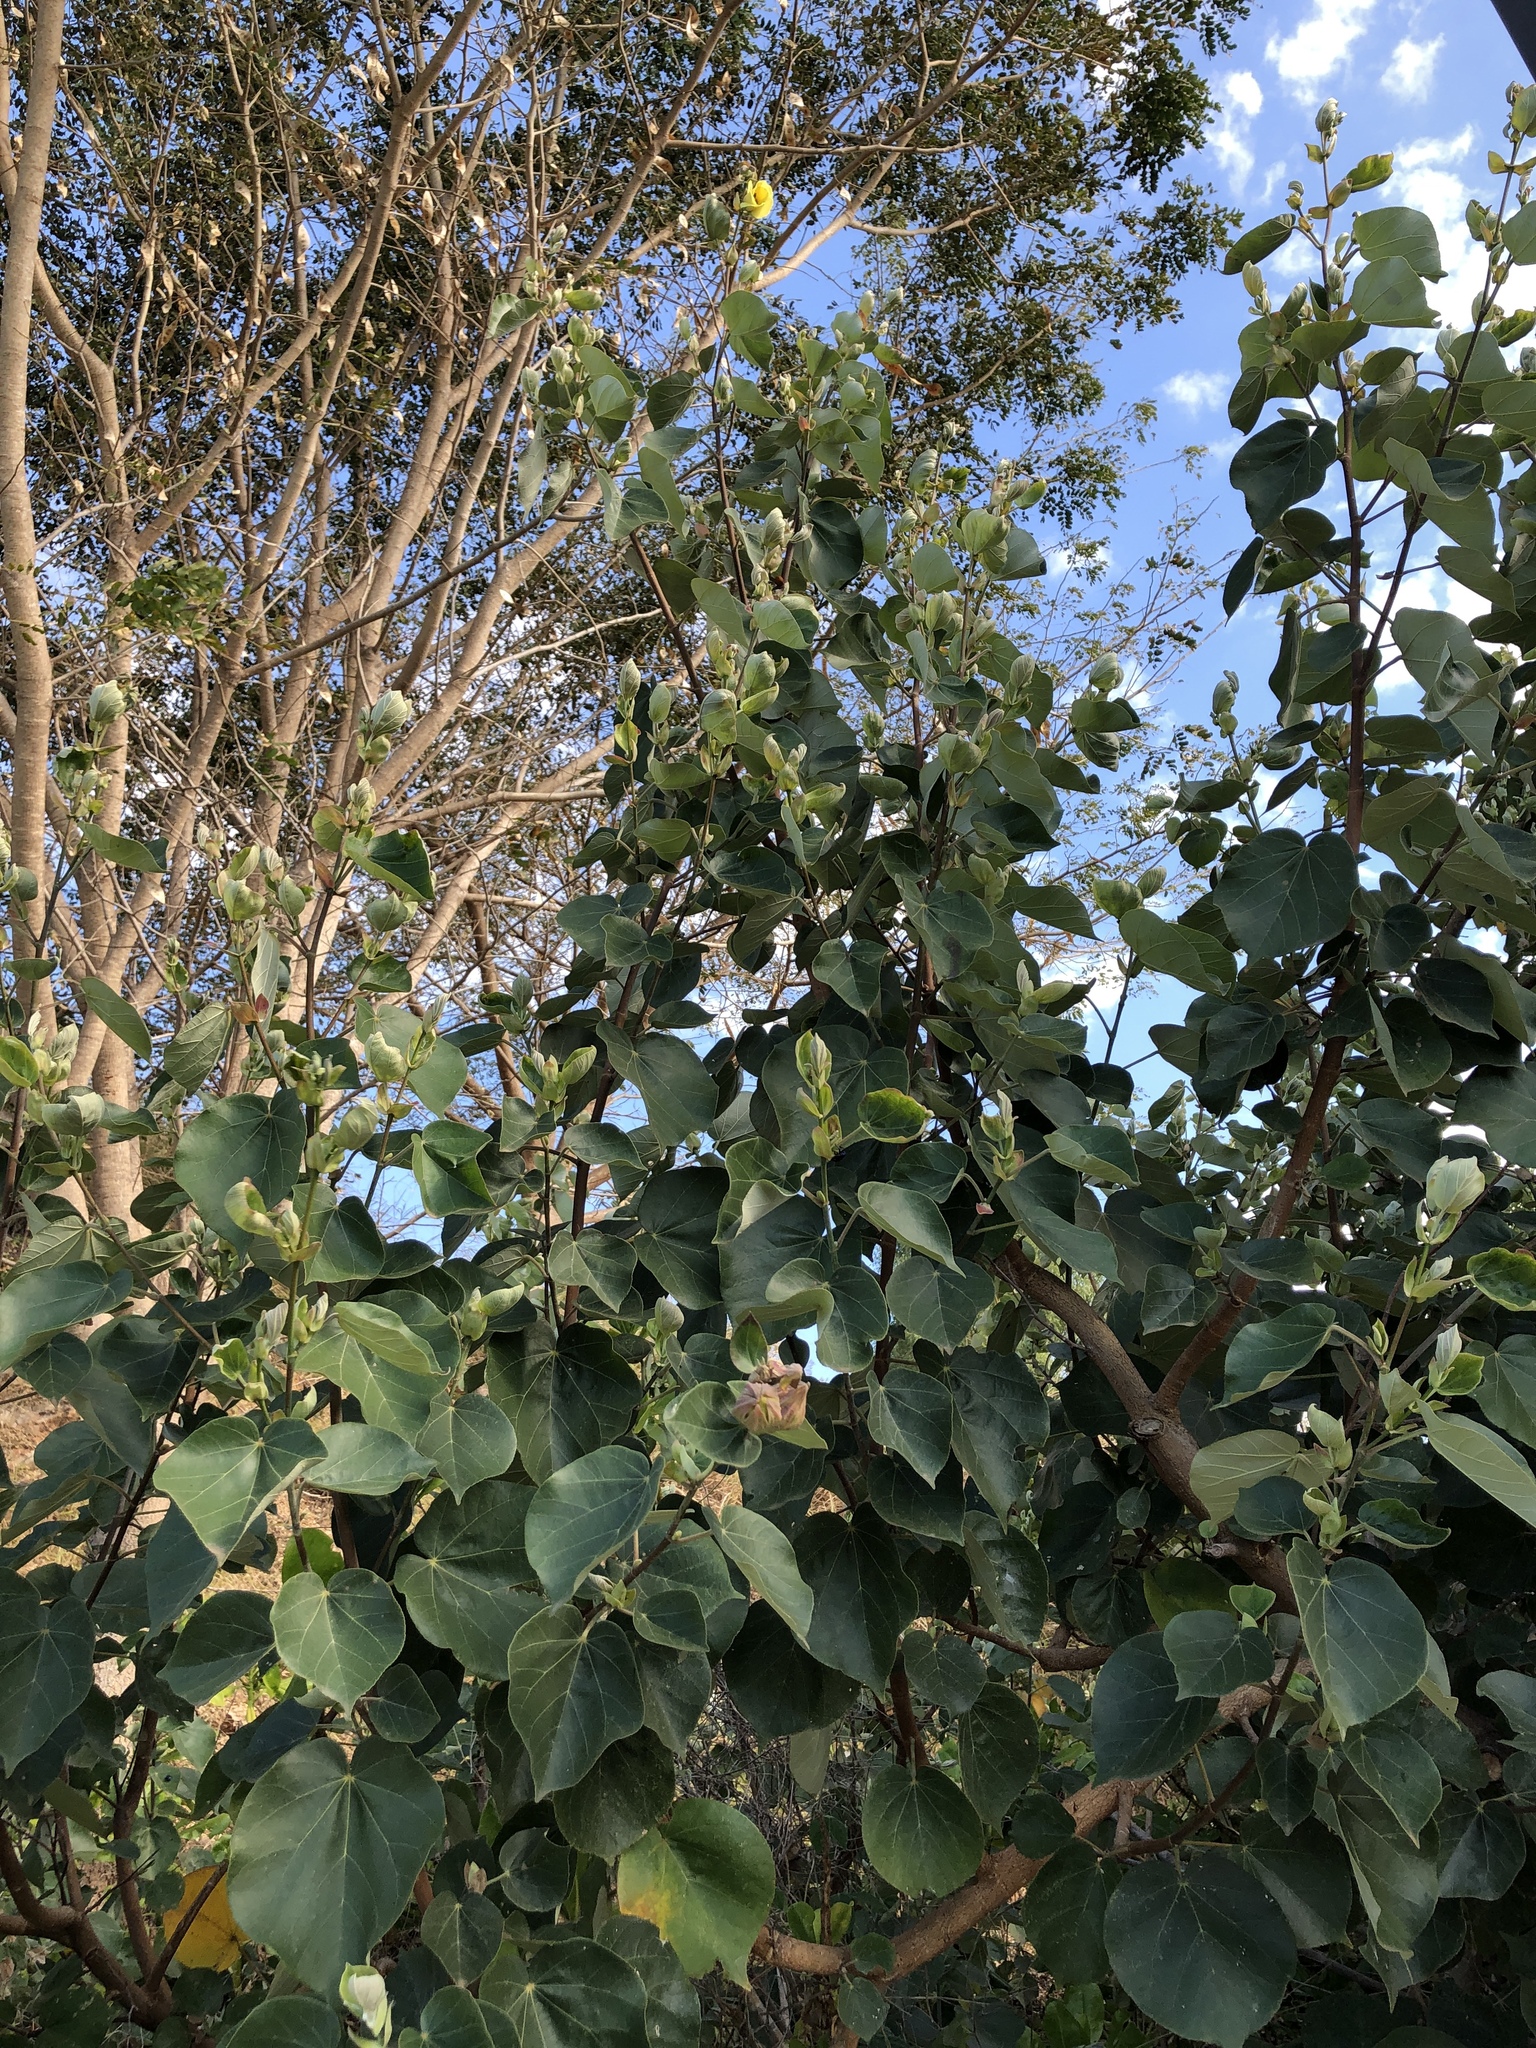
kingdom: Plantae
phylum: Tracheophyta
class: Magnoliopsida
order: Malvales
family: Malvaceae
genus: Talipariti
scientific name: Talipariti tiliaceum
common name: Sea hibiscus
